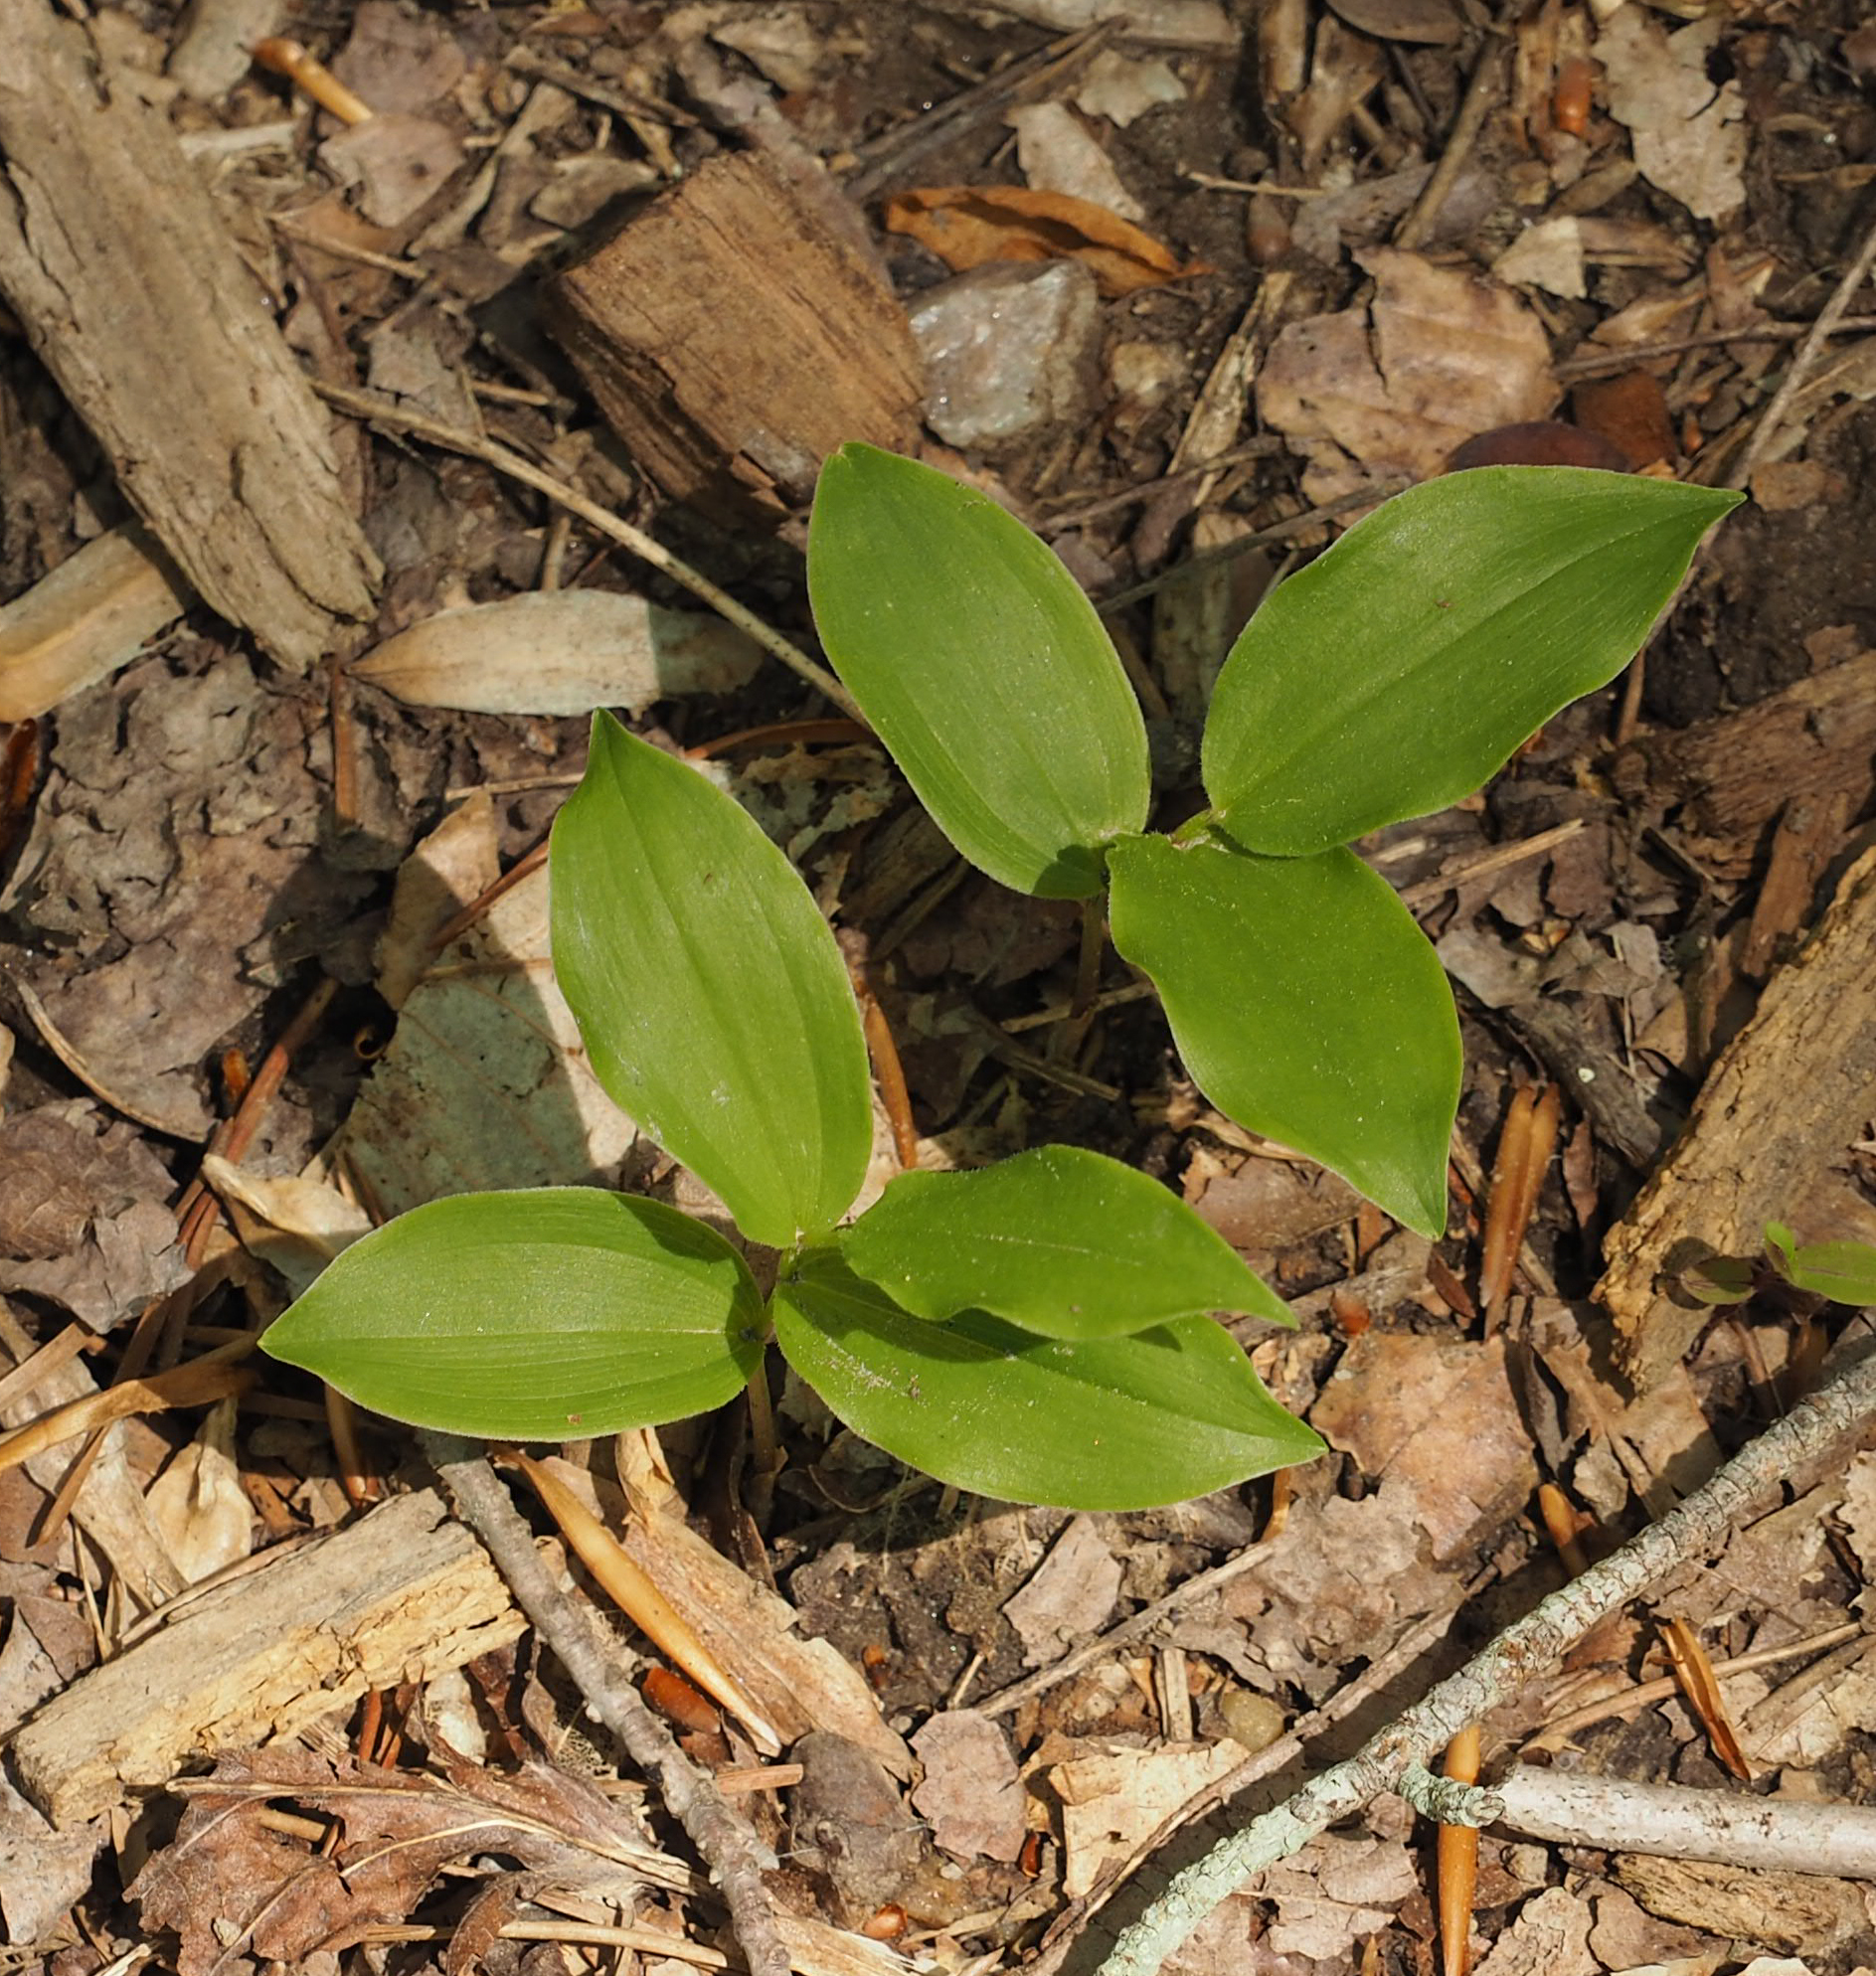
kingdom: Plantae
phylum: Tracheophyta
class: Liliopsida
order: Asparagales
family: Asparagaceae
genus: Maianthemum
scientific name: Maianthemum racemosum
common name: False spikenard
